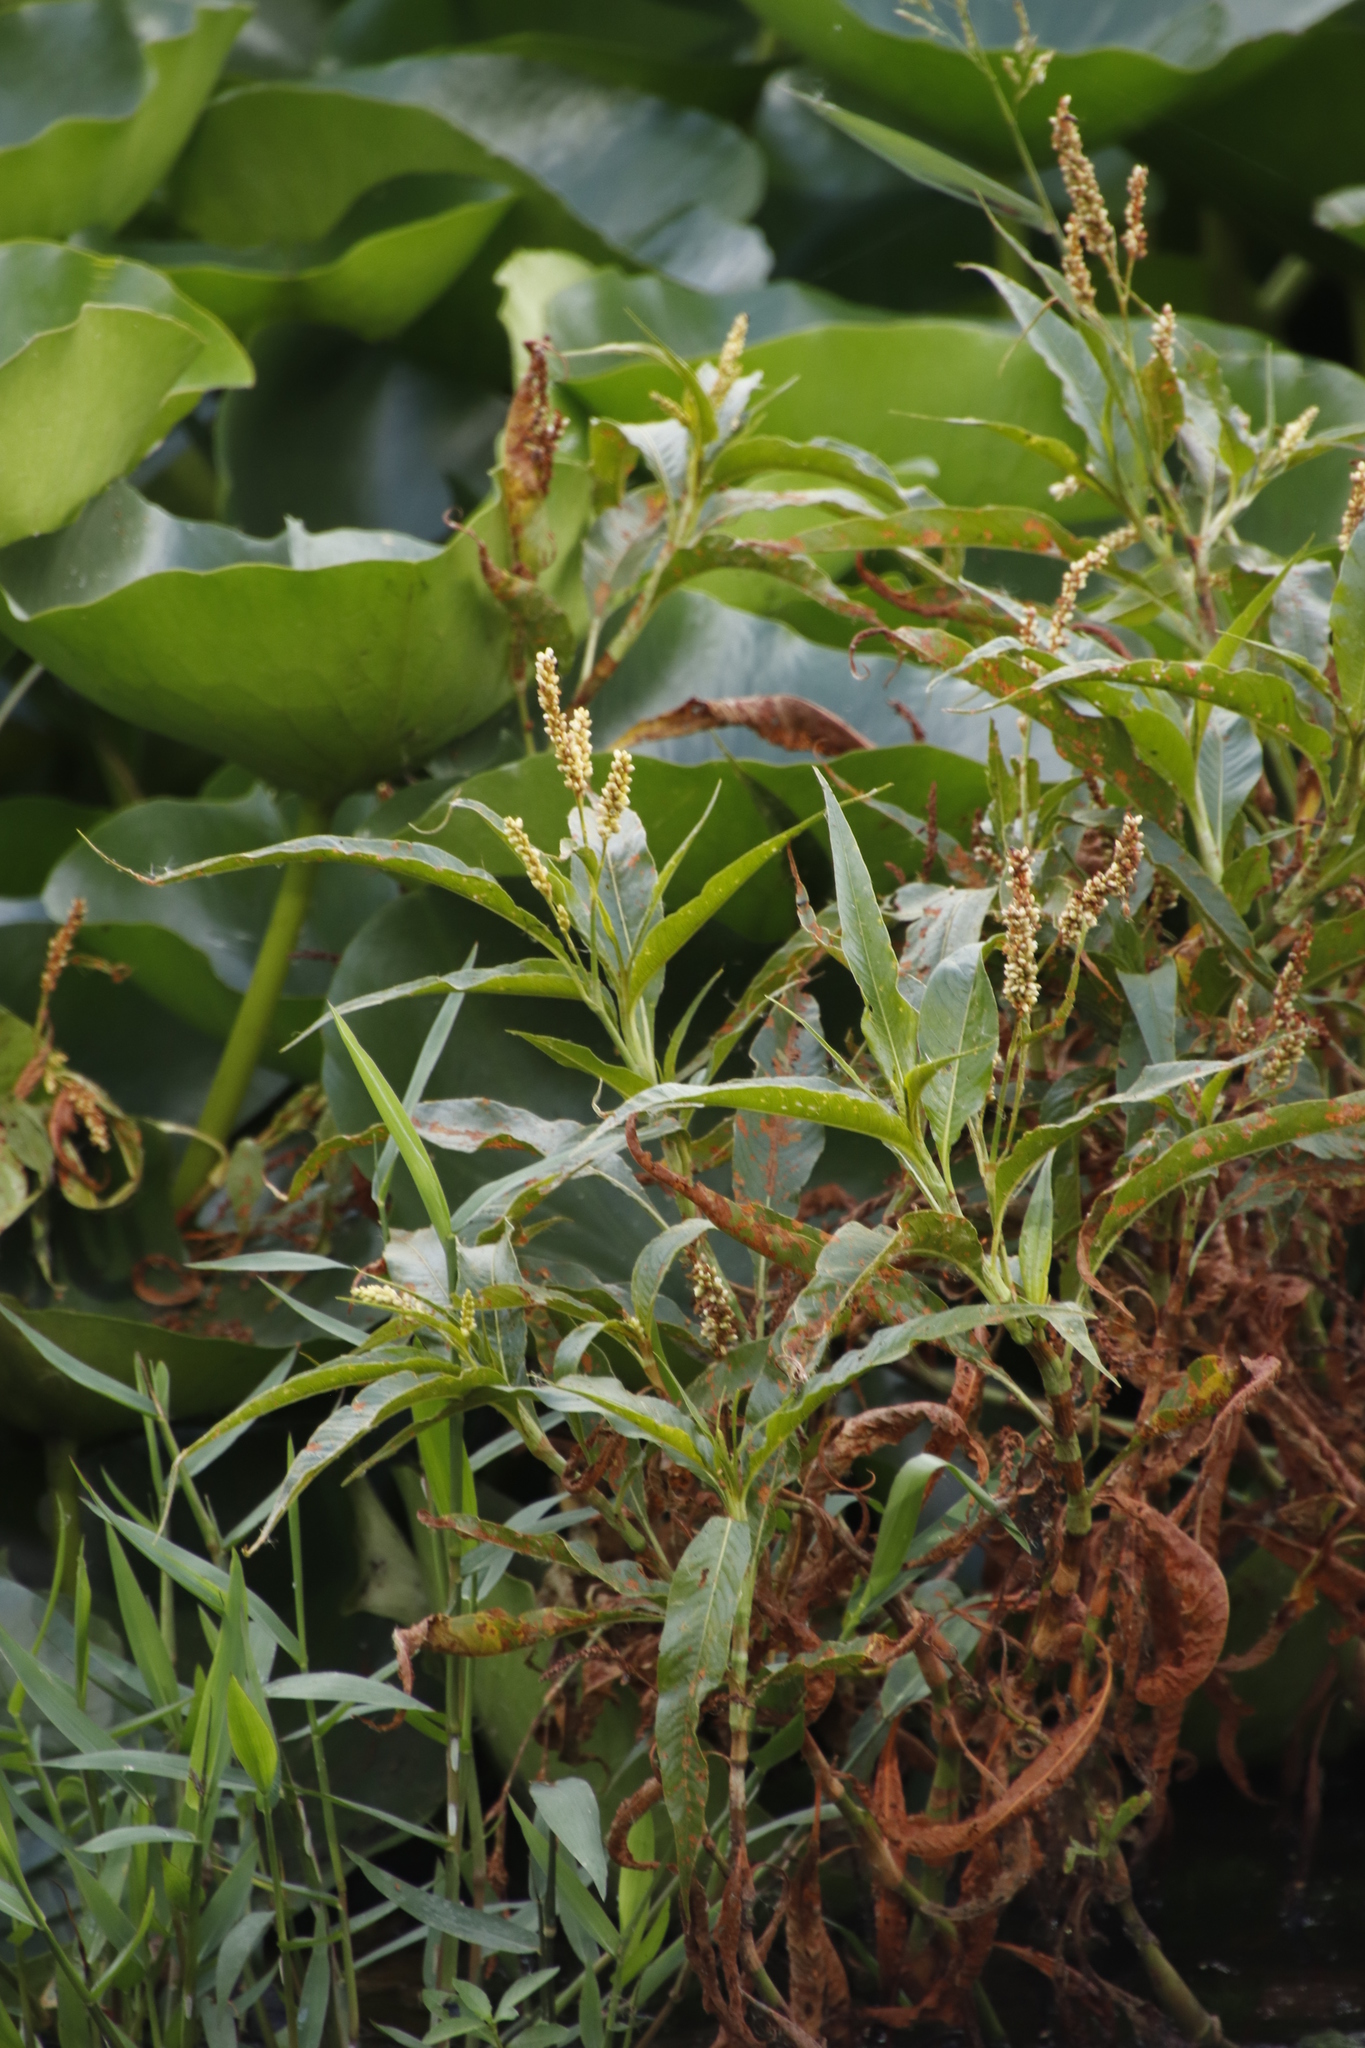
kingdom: Plantae
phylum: Tracheophyta
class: Magnoliopsida
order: Caryophyllales
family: Polygonaceae
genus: Persicaria
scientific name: Persicaria senegalensis
